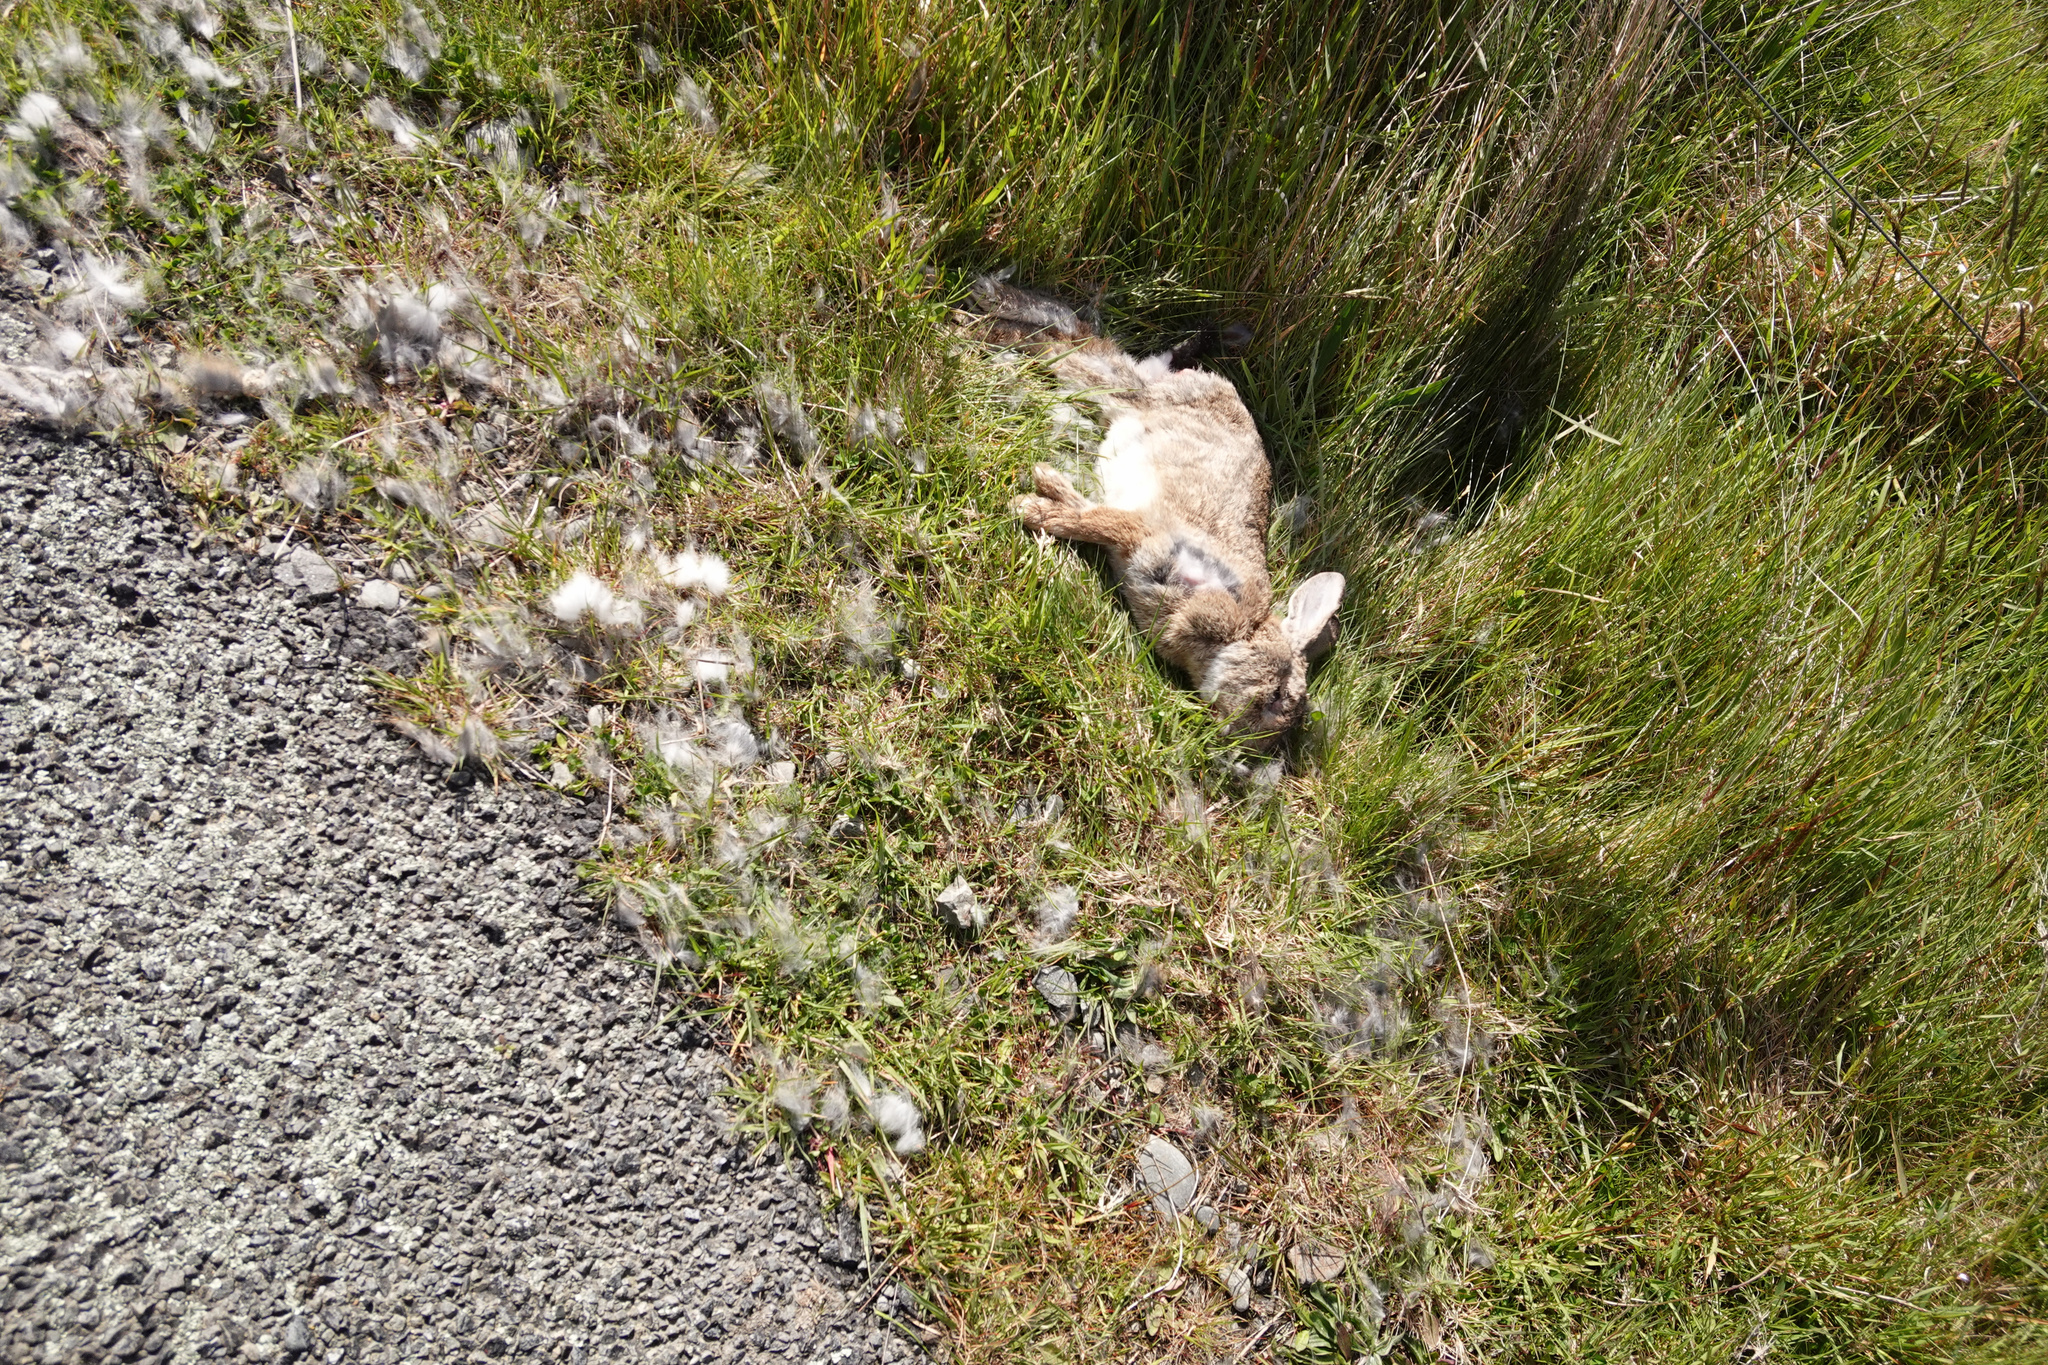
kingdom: Animalia
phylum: Chordata
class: Mammalia
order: Lagomorpha
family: Leporidae
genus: Oryctolagus
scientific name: Oryctolagus cuniculus
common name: European rabbit
